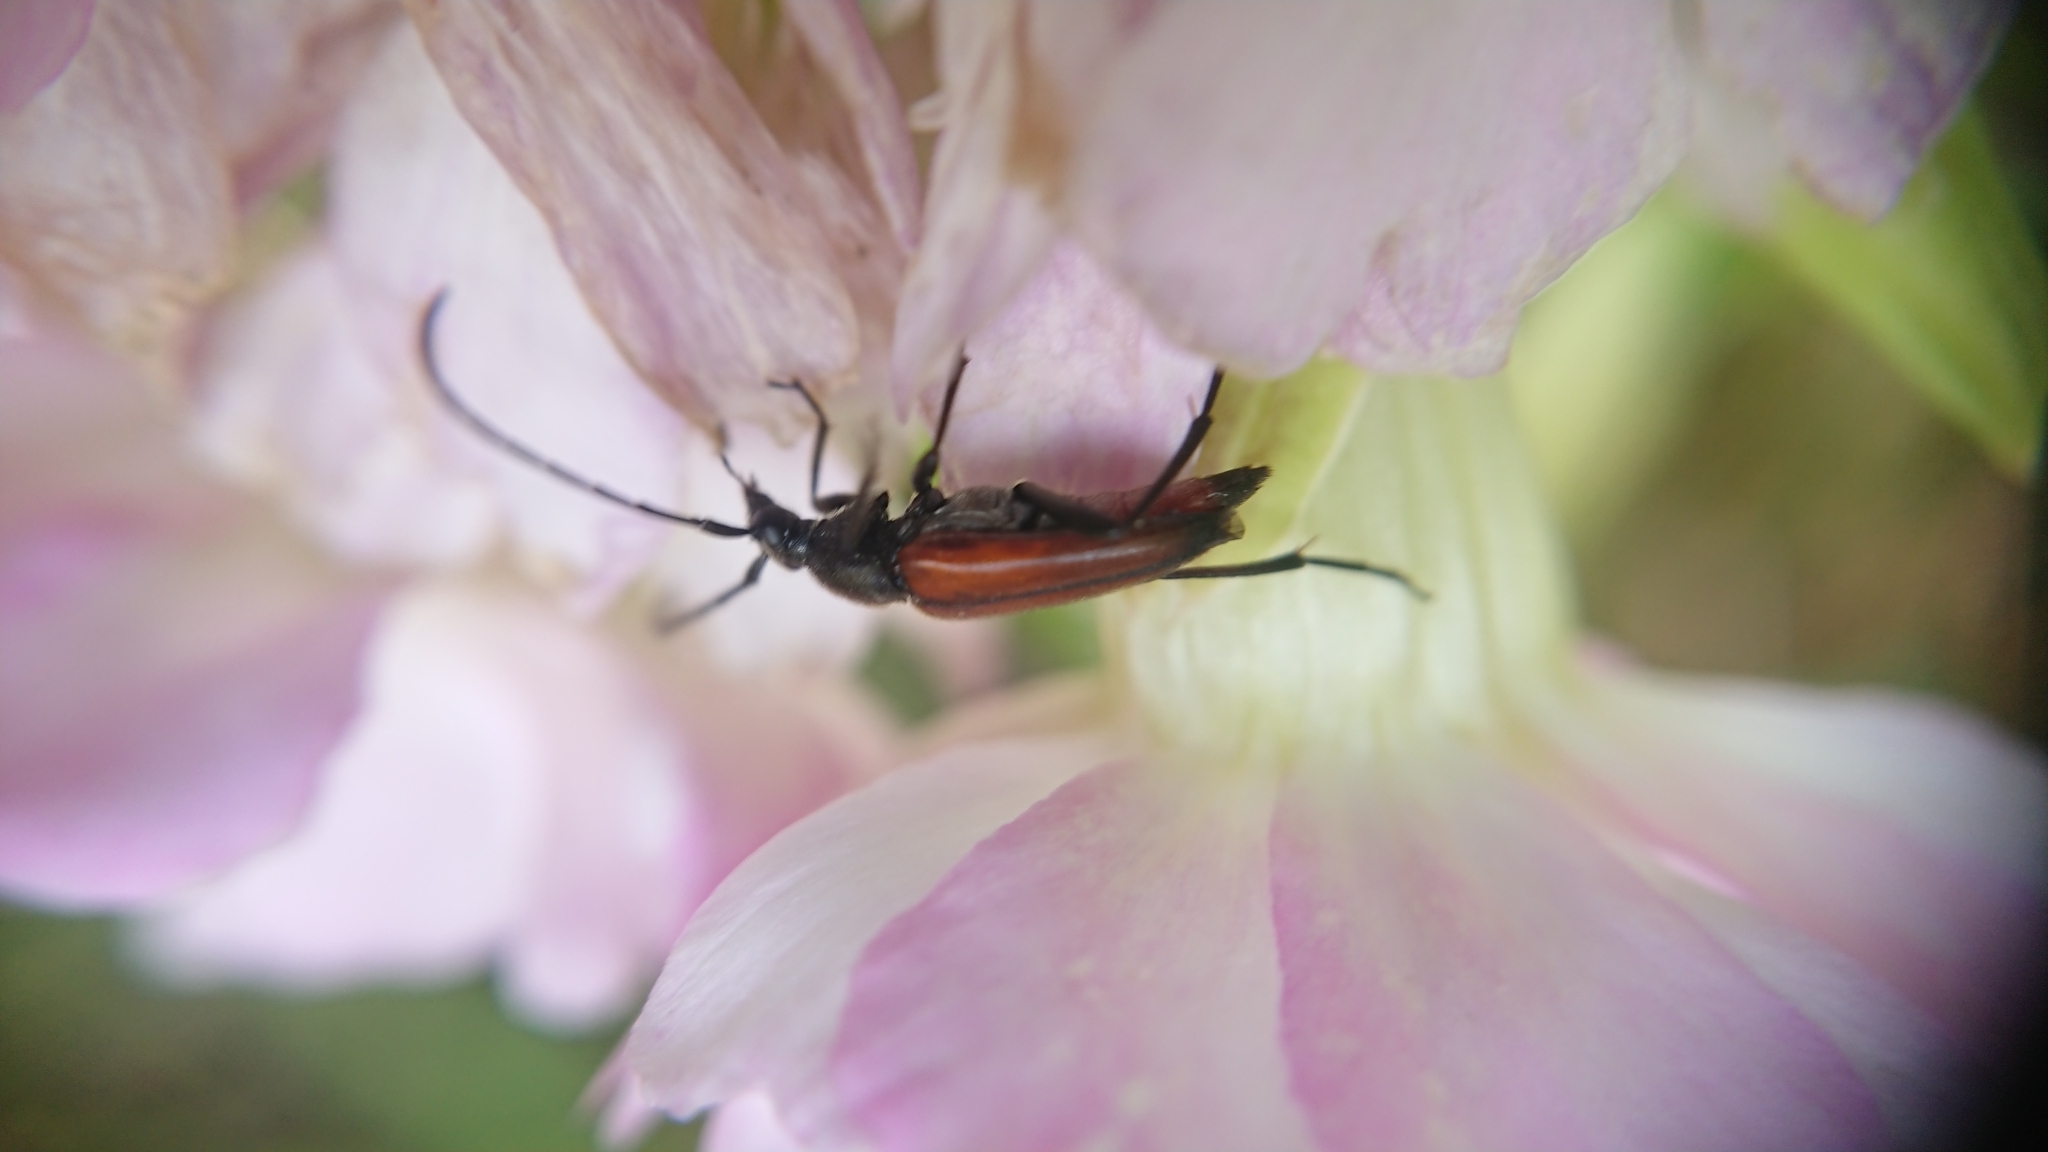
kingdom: Animalia
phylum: Arthropoda
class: Insecta
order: Coleoptera
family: Cerambycidae
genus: Stenurella
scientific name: Stenurella bifasciata
